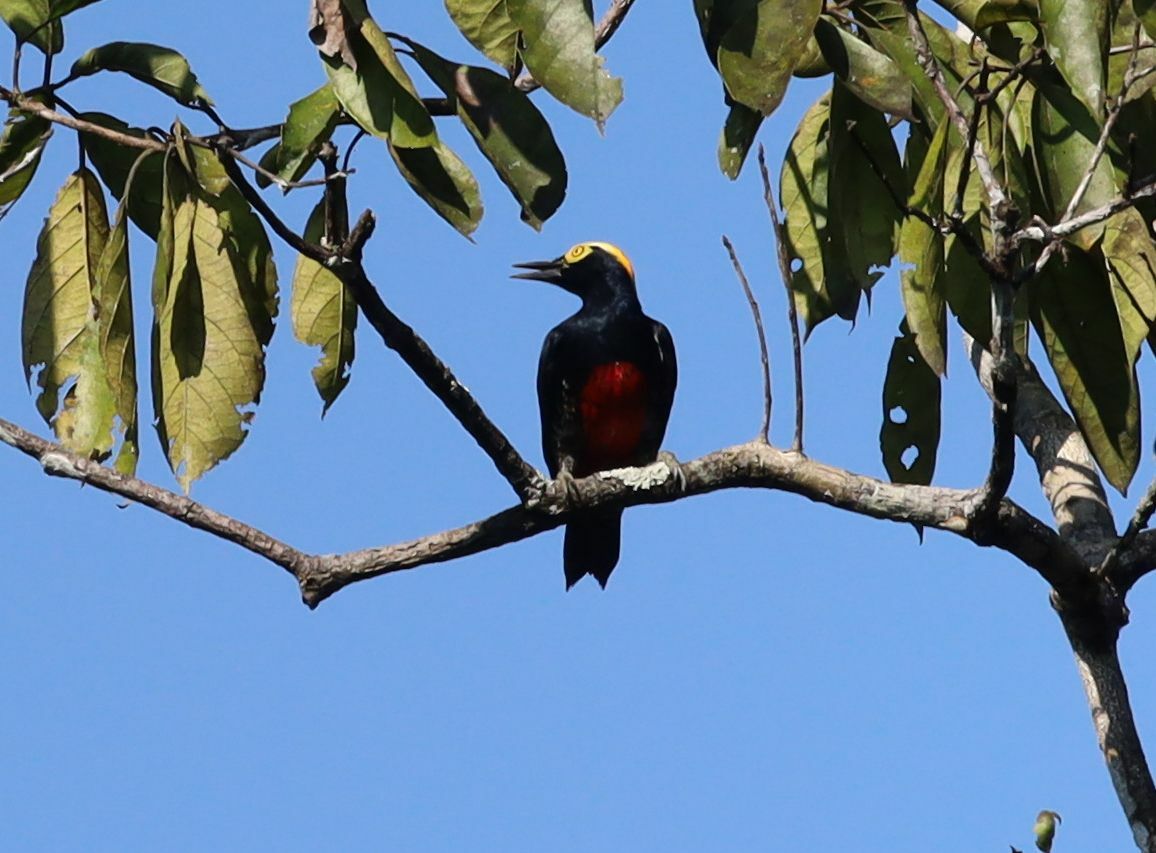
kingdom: Animalia
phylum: Chordata
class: Aves
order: Piciformes
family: Picidae
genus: Melanerpes
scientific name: Melanerpes cruentatus
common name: Yellow-tufted woodpecker
